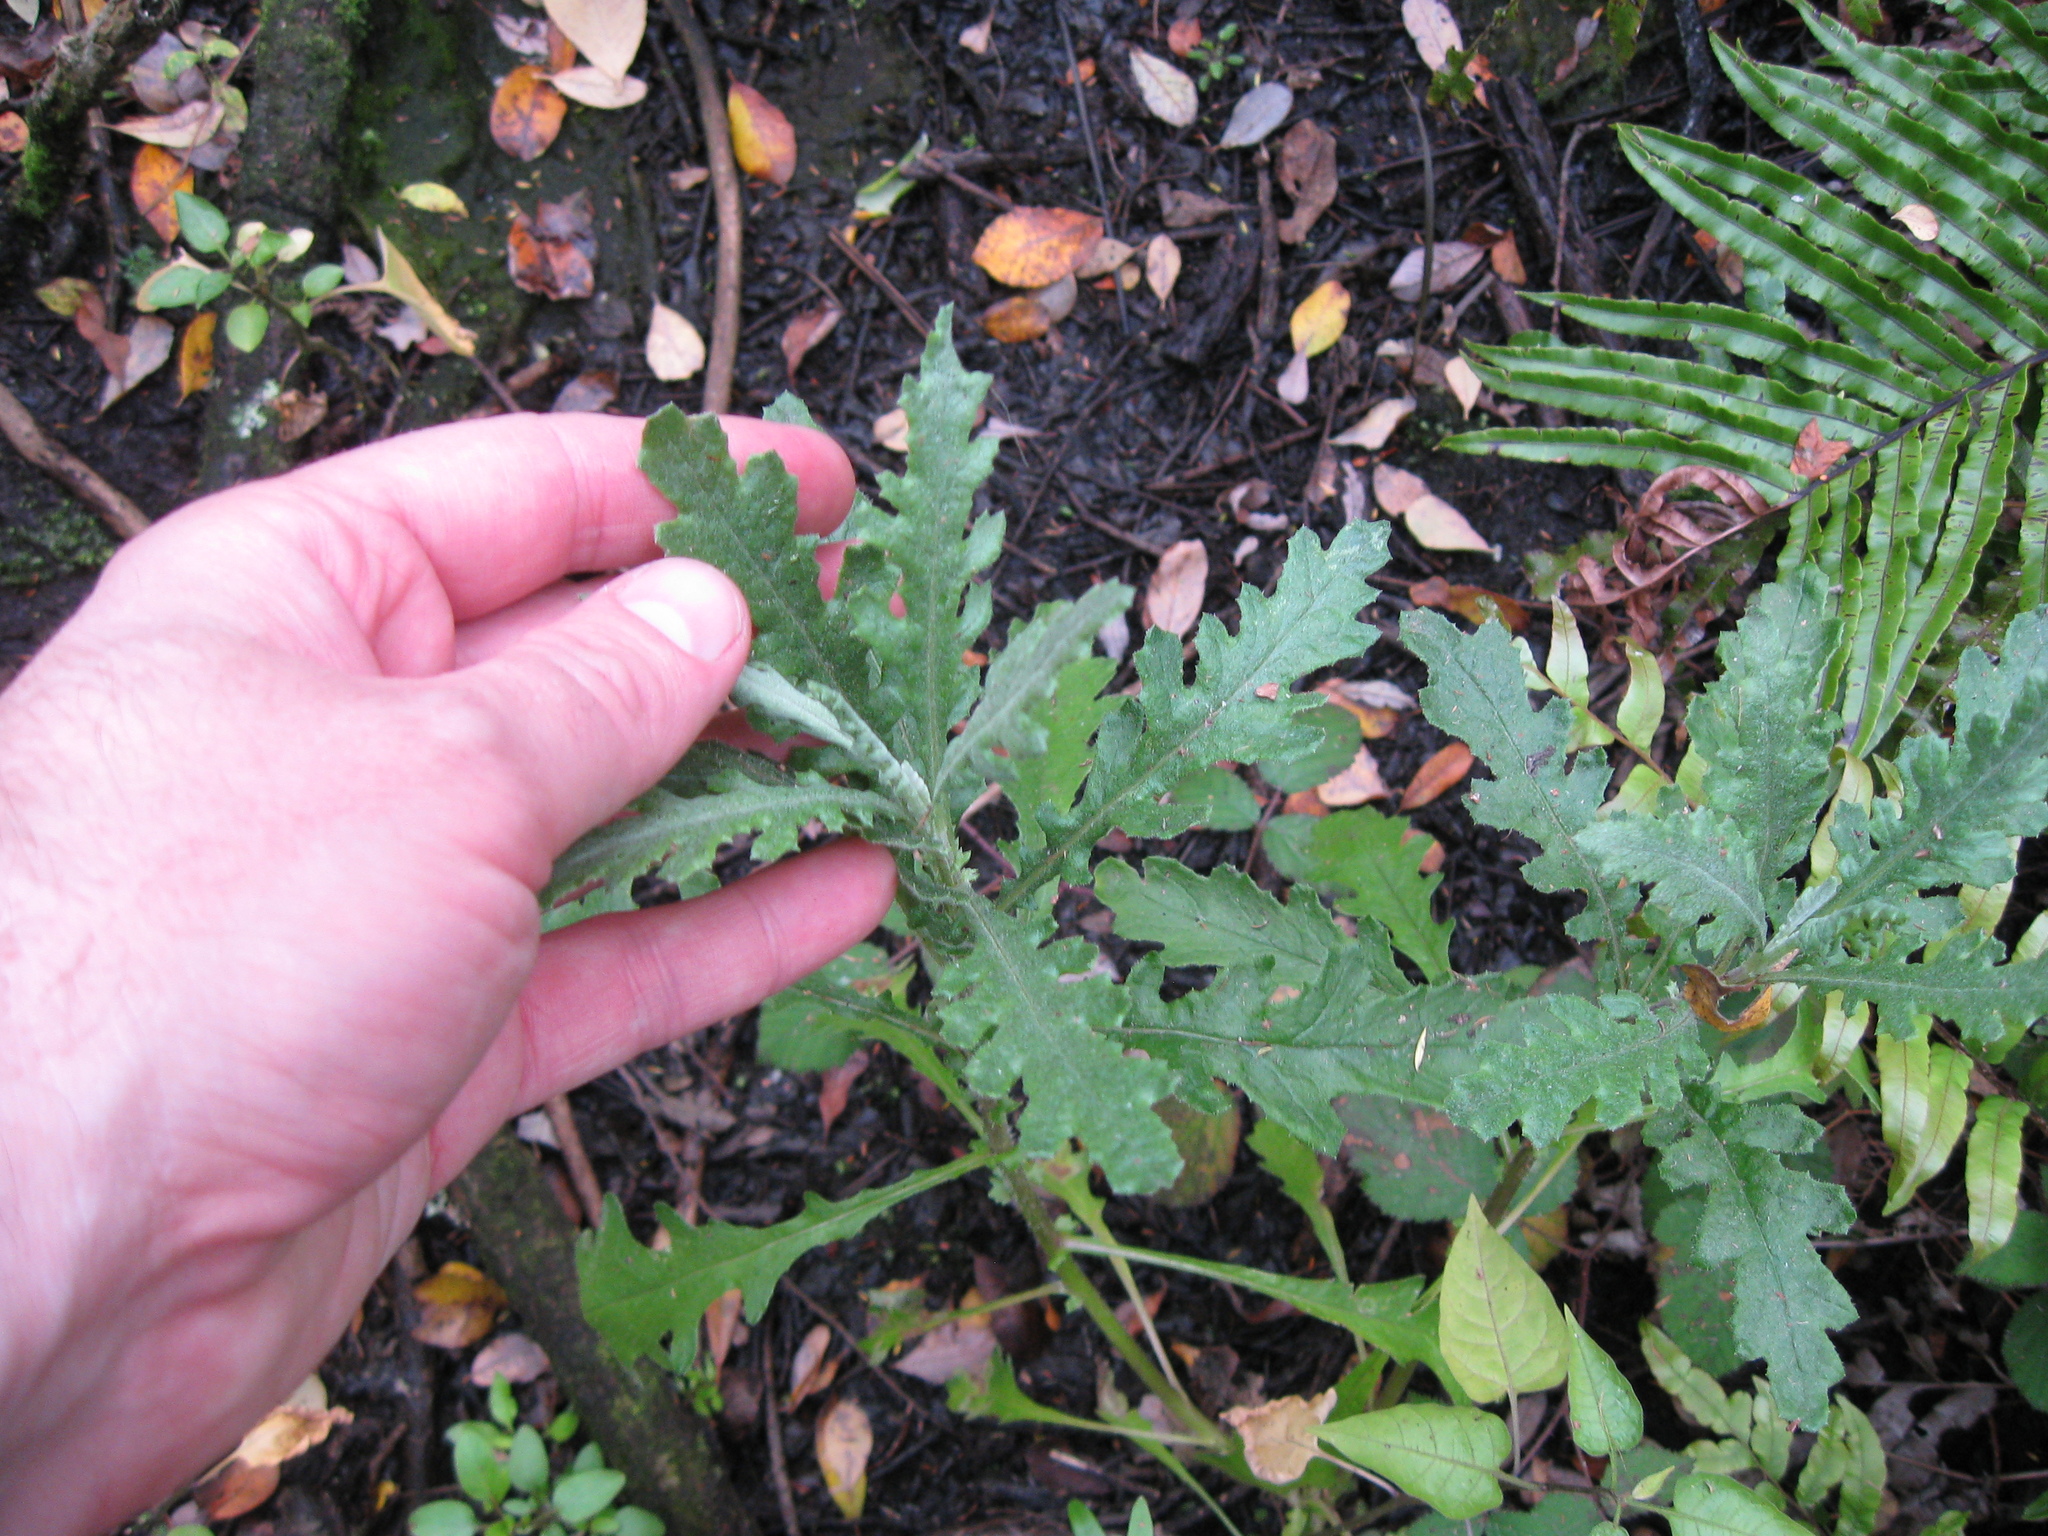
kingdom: Plantae
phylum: Tracheophyta
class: Magnoliopsida
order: Asterales
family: Asteraceae
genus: Senecio
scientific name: Senecio glomeratus
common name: Cutleaf burnweed
